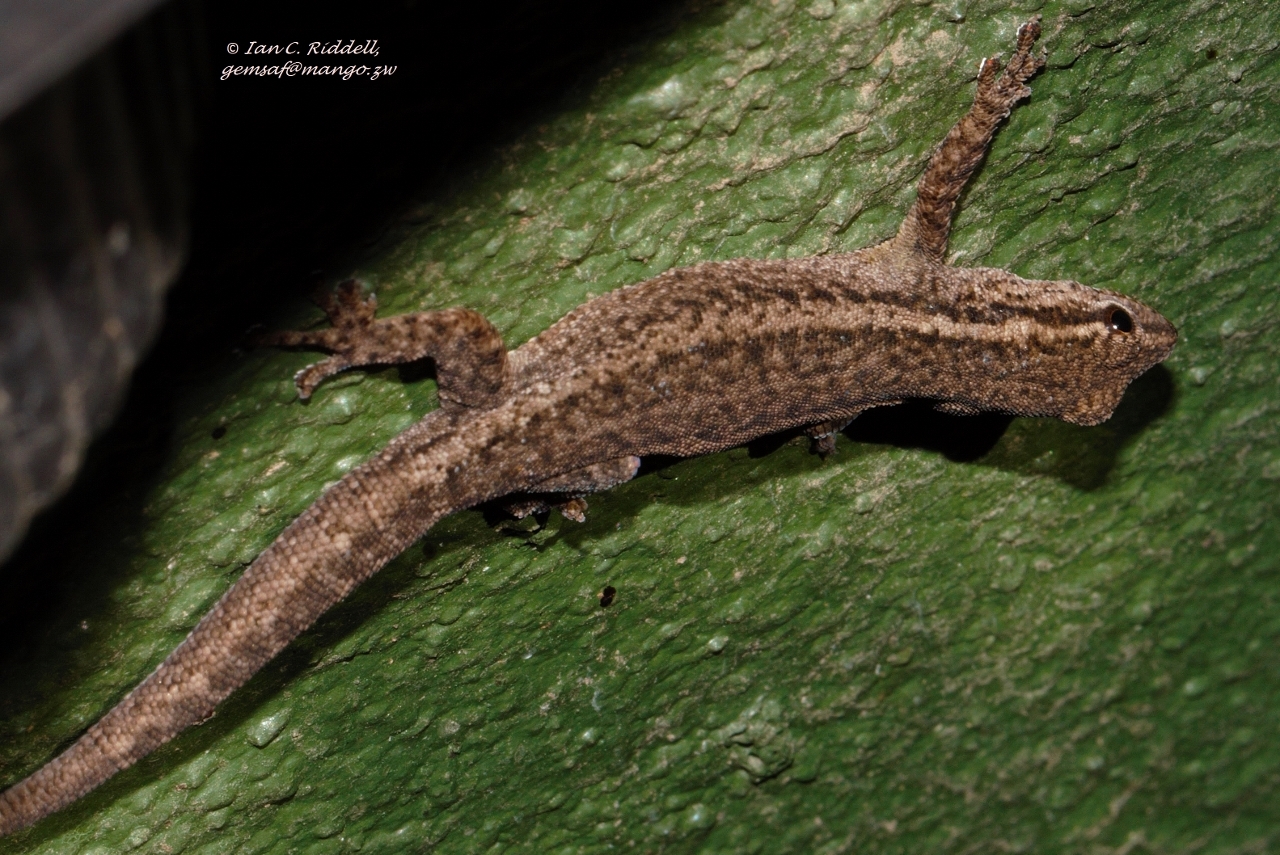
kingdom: Animalia
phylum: Chordata
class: Squamata
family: Gekkonidae
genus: Lygodactylus
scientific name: Lygodactylus capensis
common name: Cape dwarf gecko
